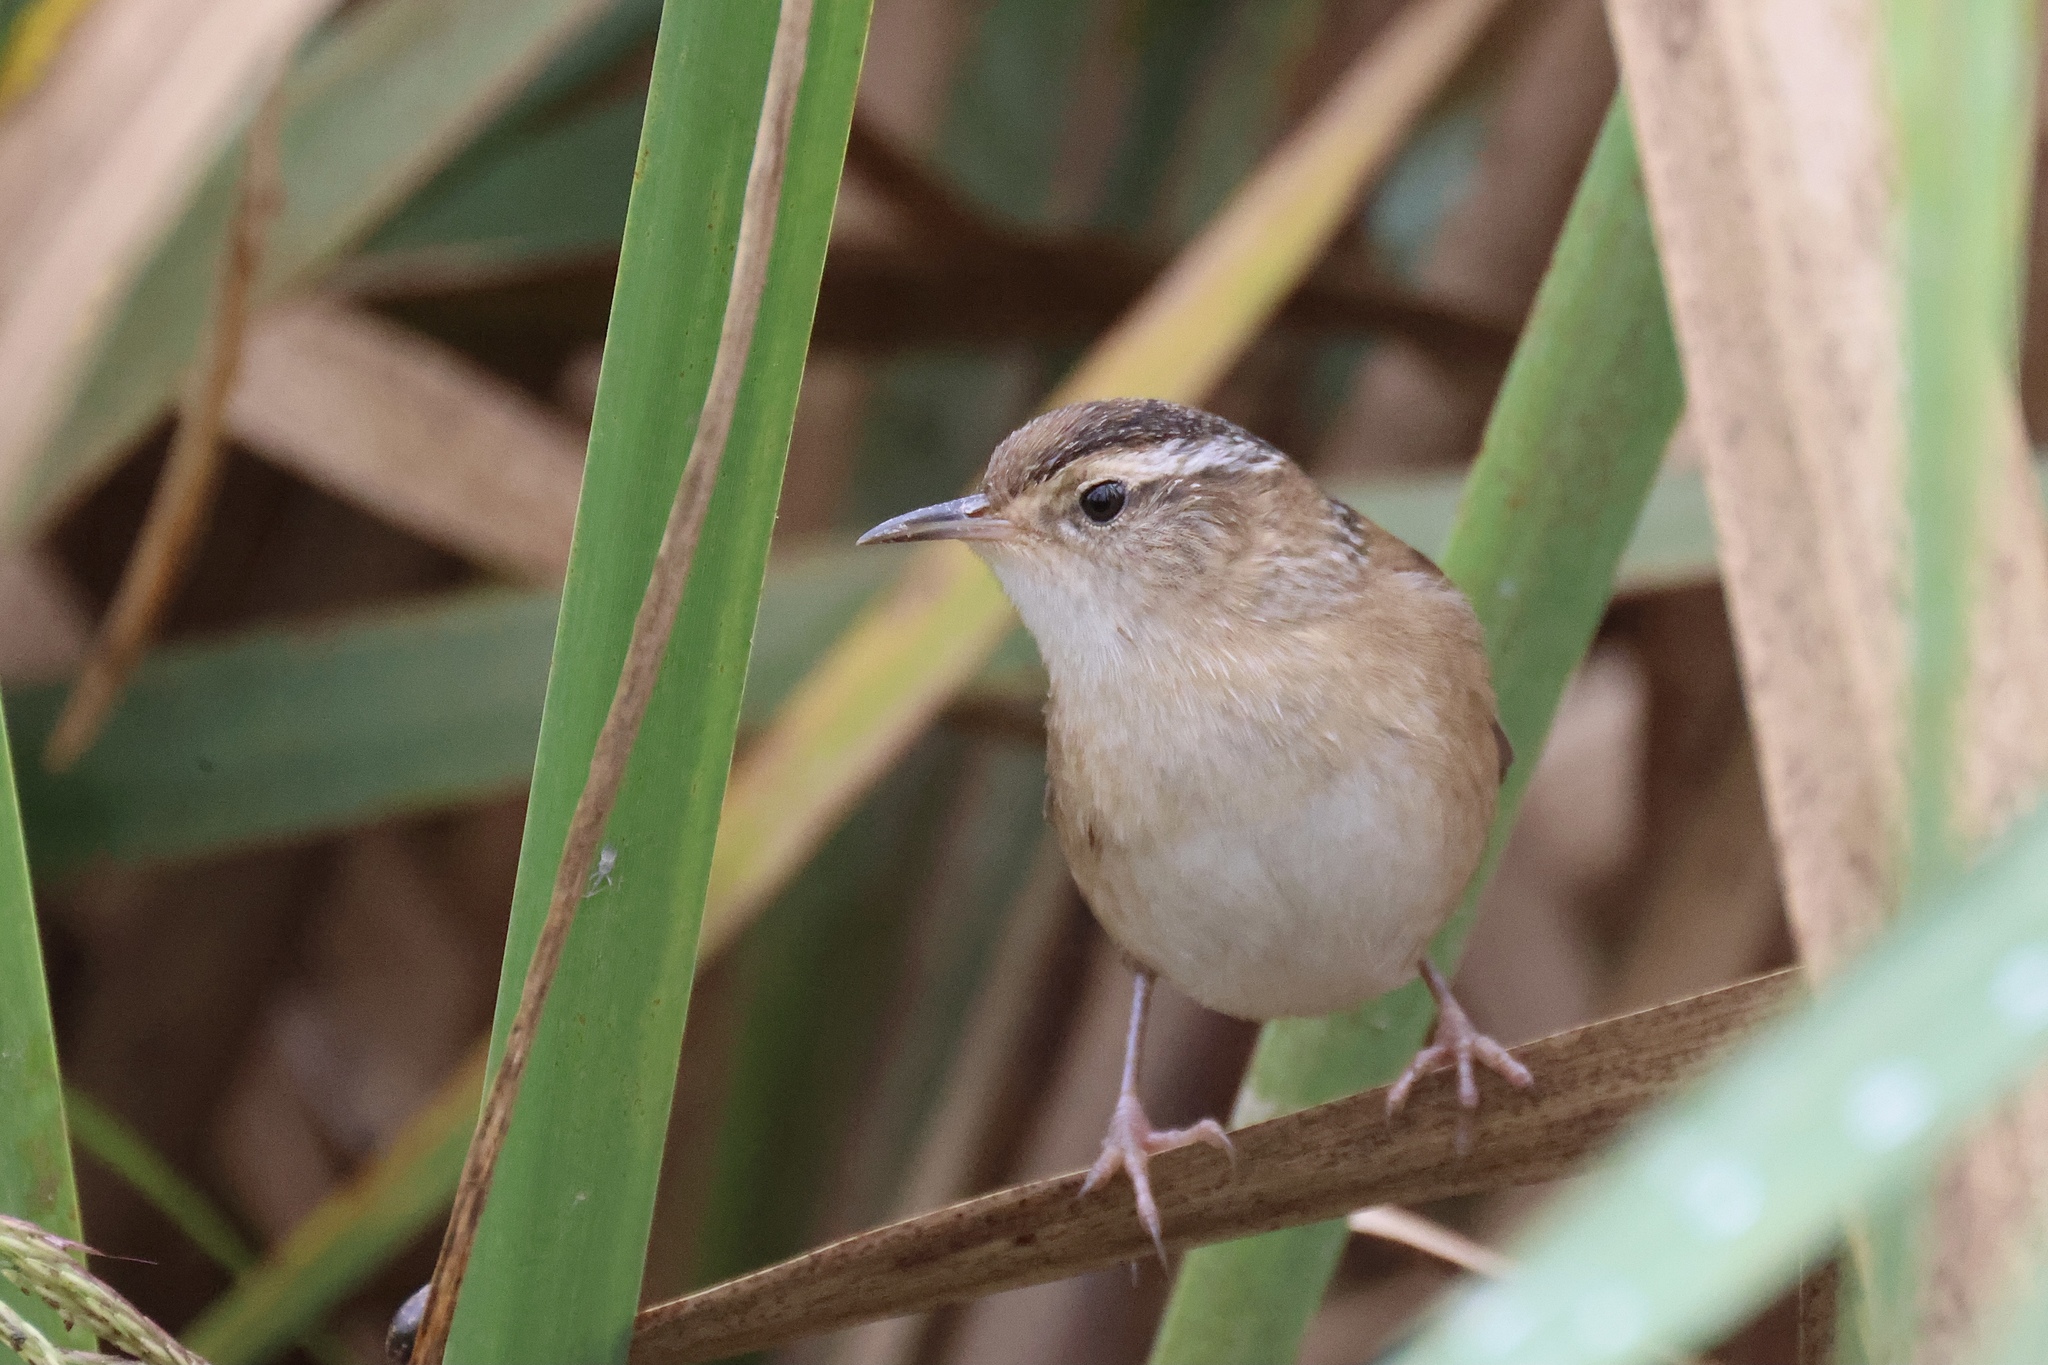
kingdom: Animalia
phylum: Chordata
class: Aves
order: Passeriformes
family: Troglodytidae
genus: Cistothorus
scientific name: Cistothorus palustris
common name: Marsh wren
